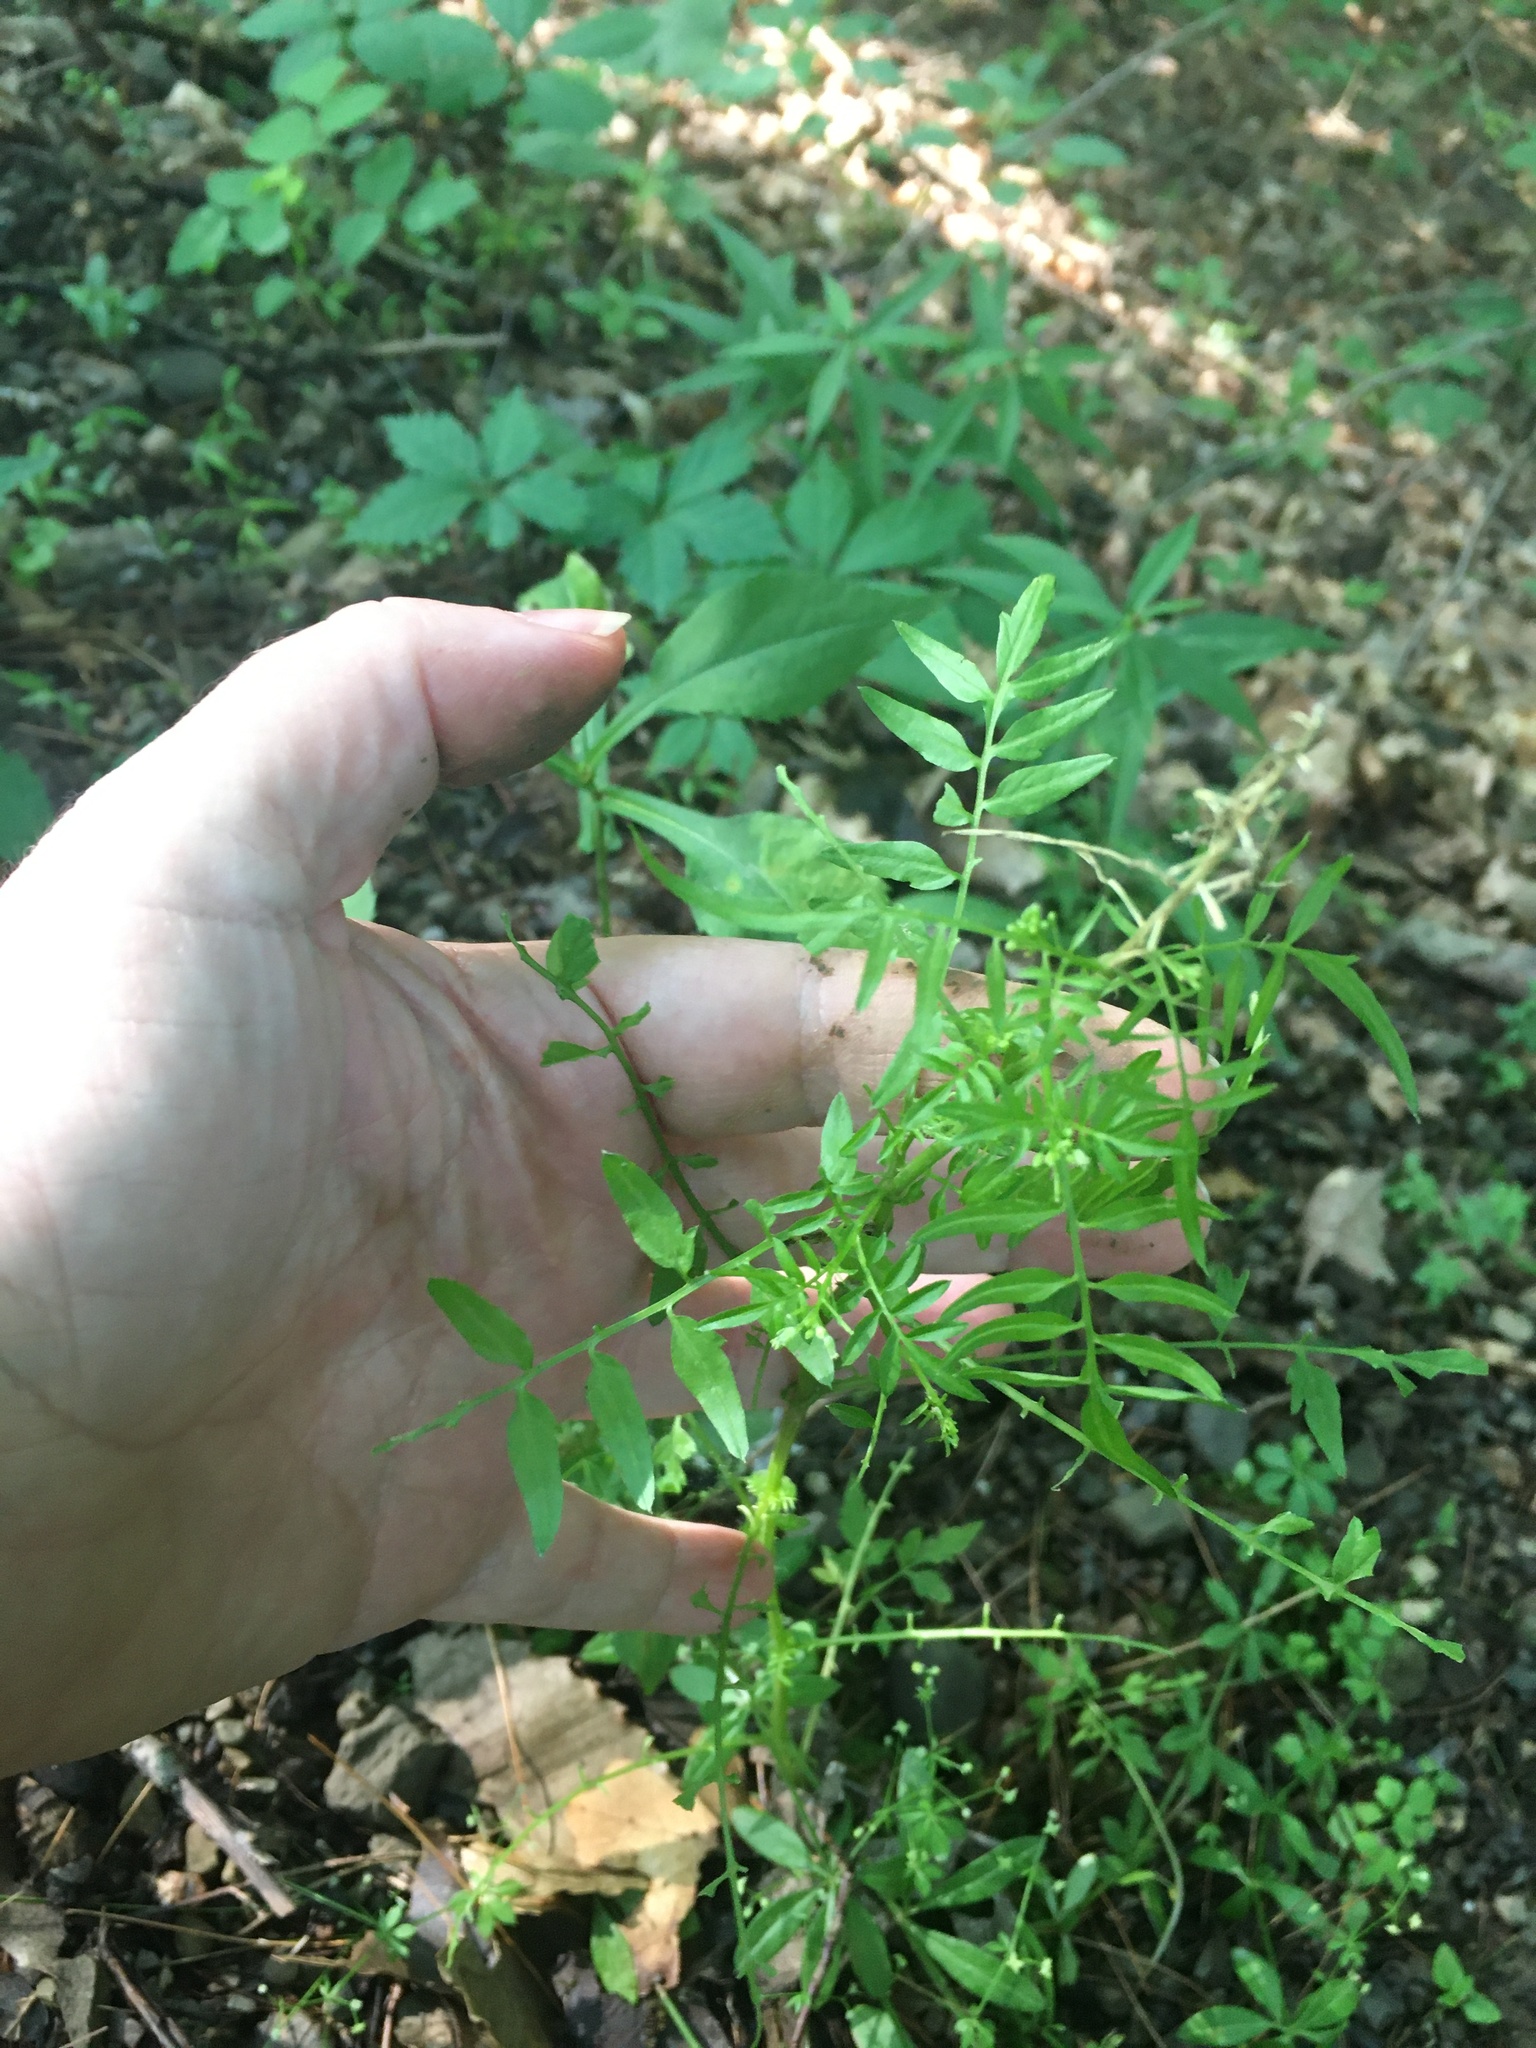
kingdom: Plantae
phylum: Tracheophyta
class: Magnoliopsida
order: Brassicales
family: Brassicaceae
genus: Cardamine
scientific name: Cardamine impatiens
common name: Narrow-leaved bitter-cress
